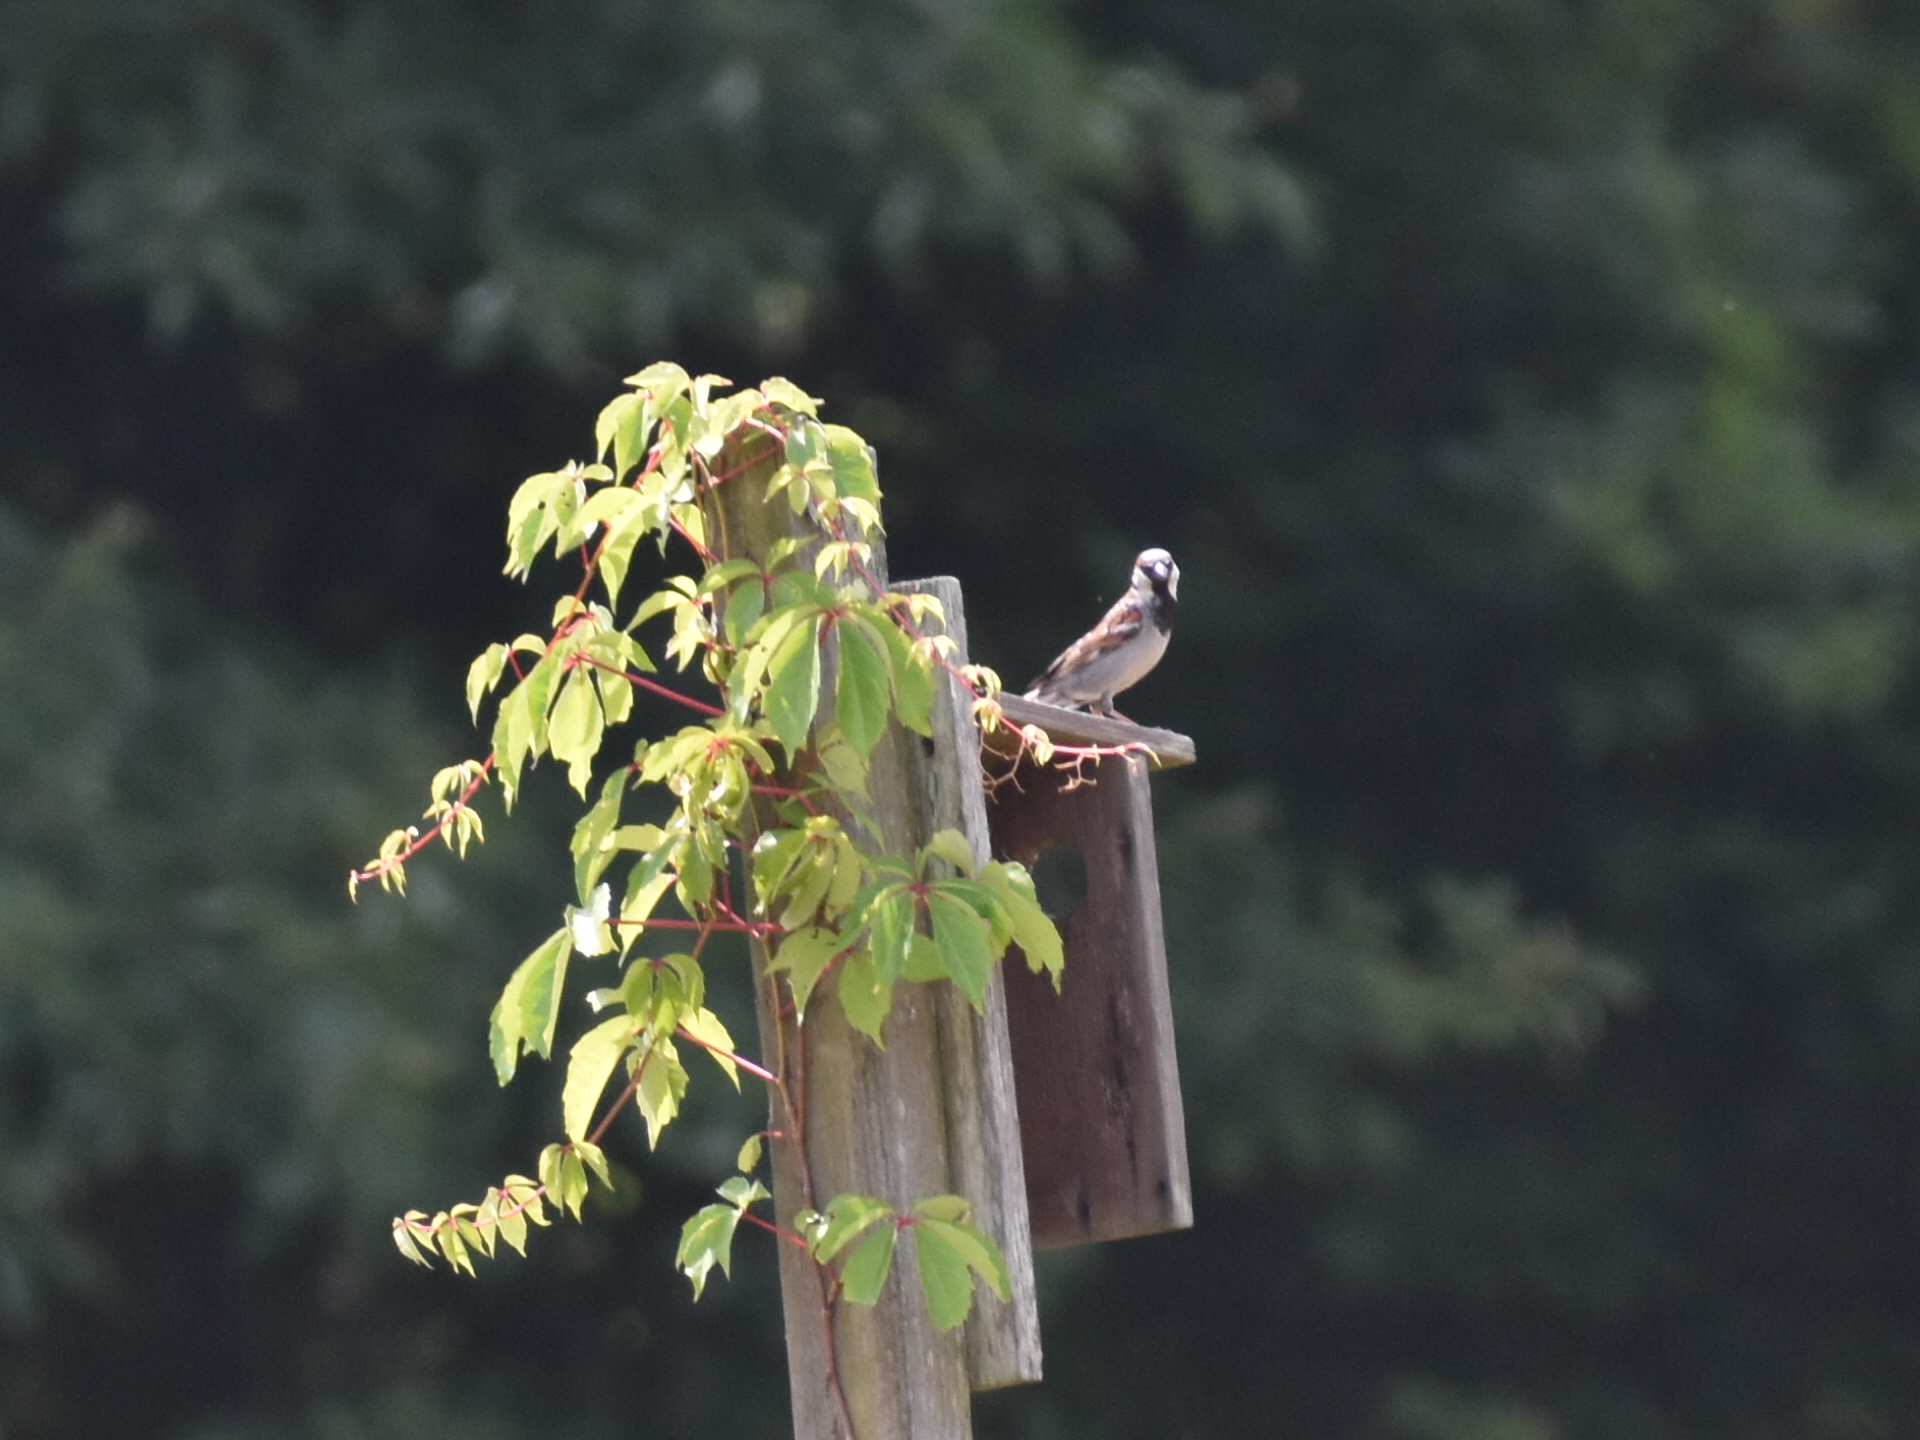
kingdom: Animalia
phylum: Chordata
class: Aves
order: Passeriformes
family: Passeridae
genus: Passer
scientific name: Passer domesticus
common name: House sparrow
